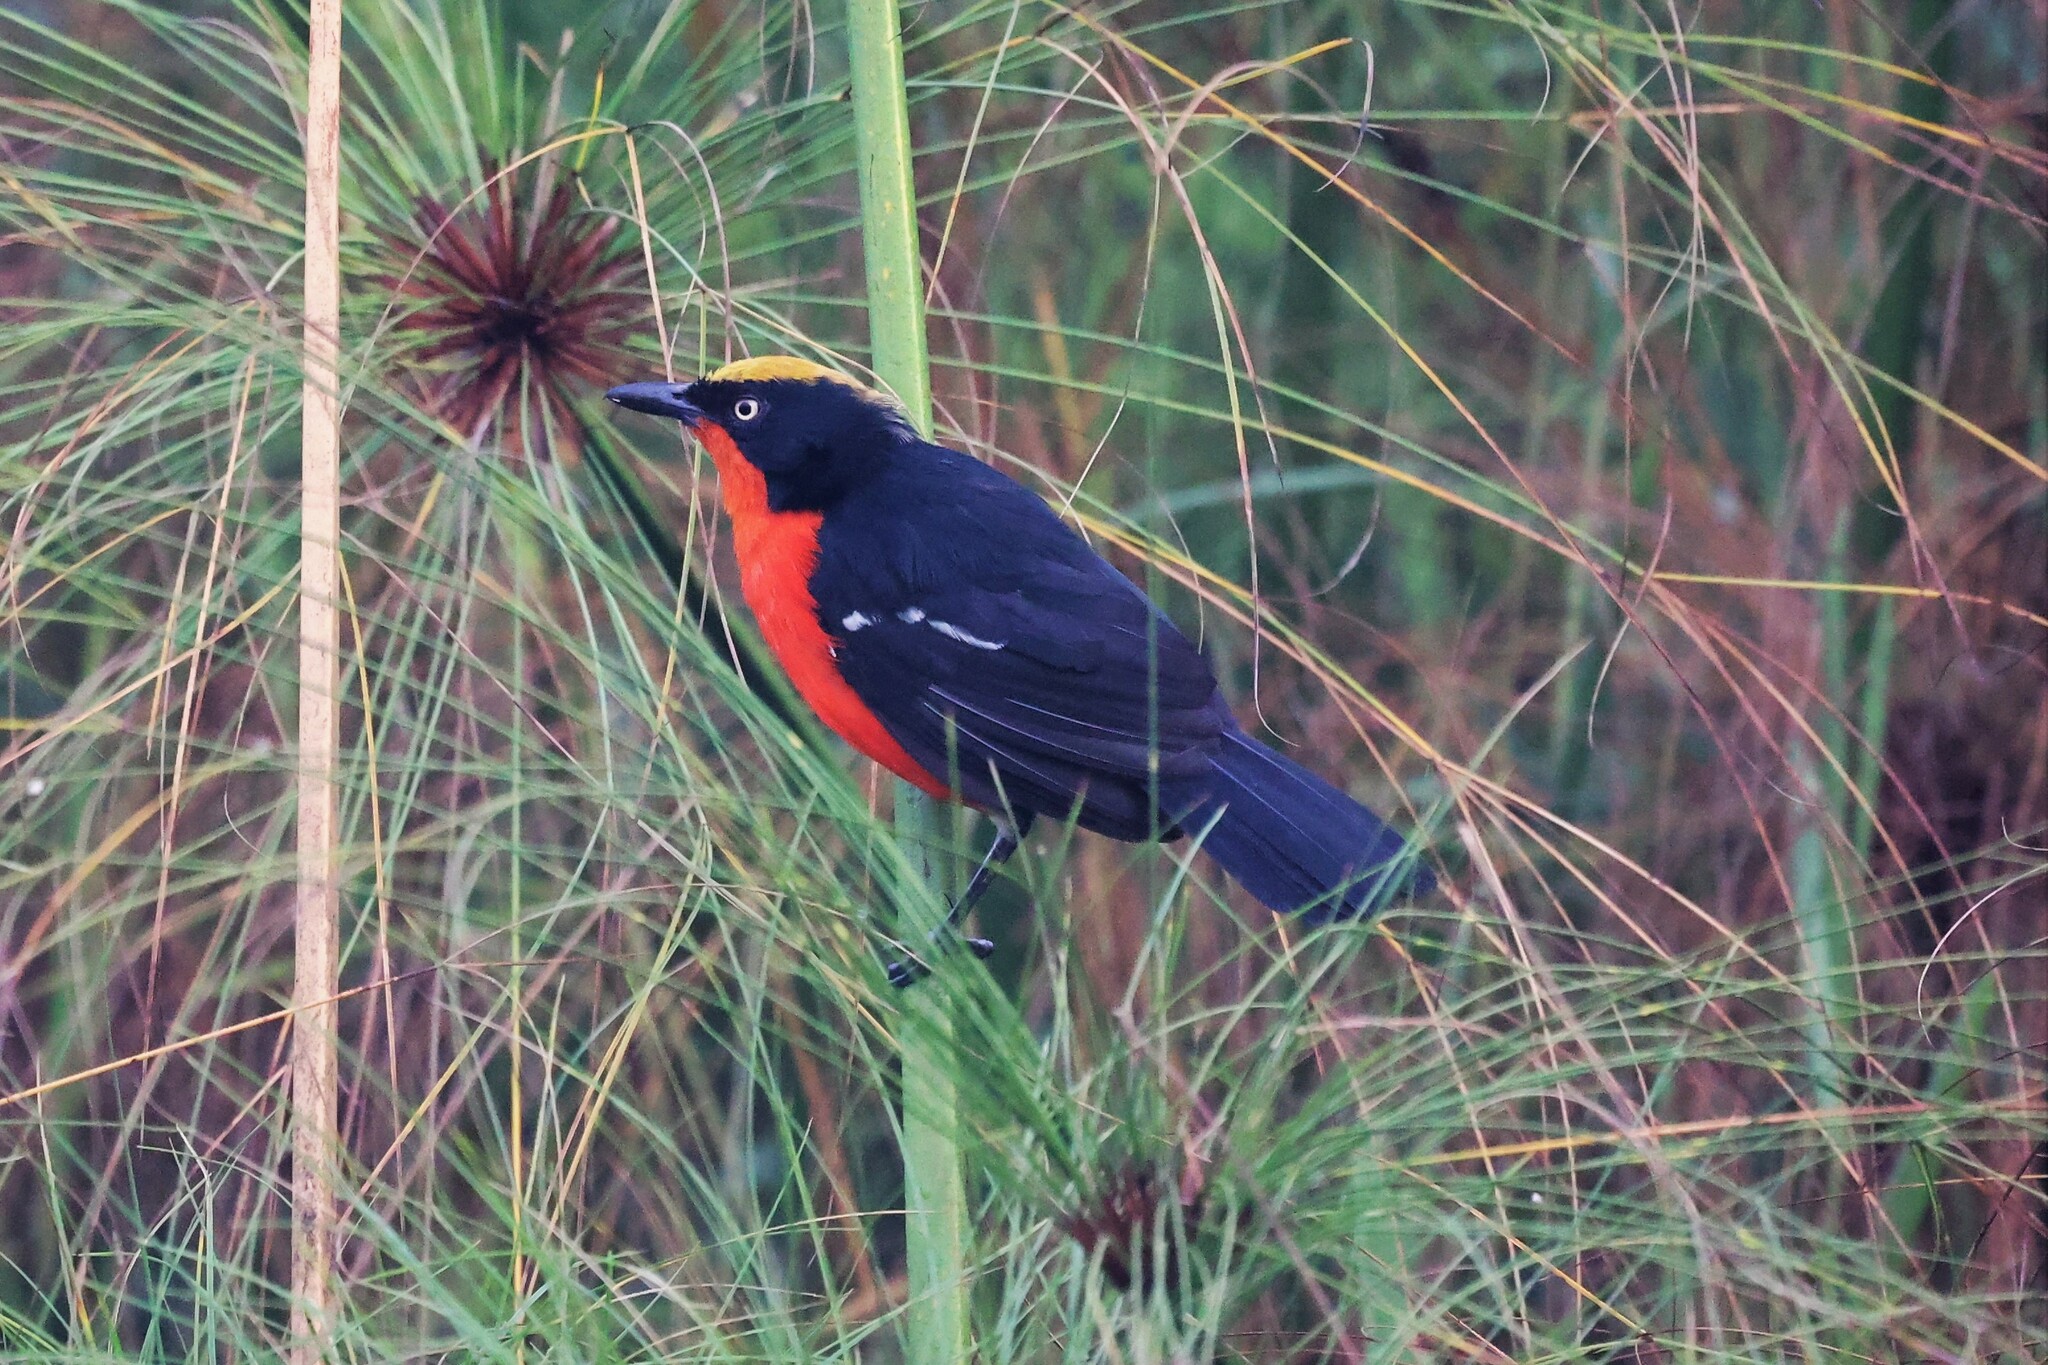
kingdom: Animalia
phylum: Chordata
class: Aves
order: Passeriformes
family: Malaconotidae
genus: Laniarius
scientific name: Laniarius mufumbiri
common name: Papyrus gonolek
